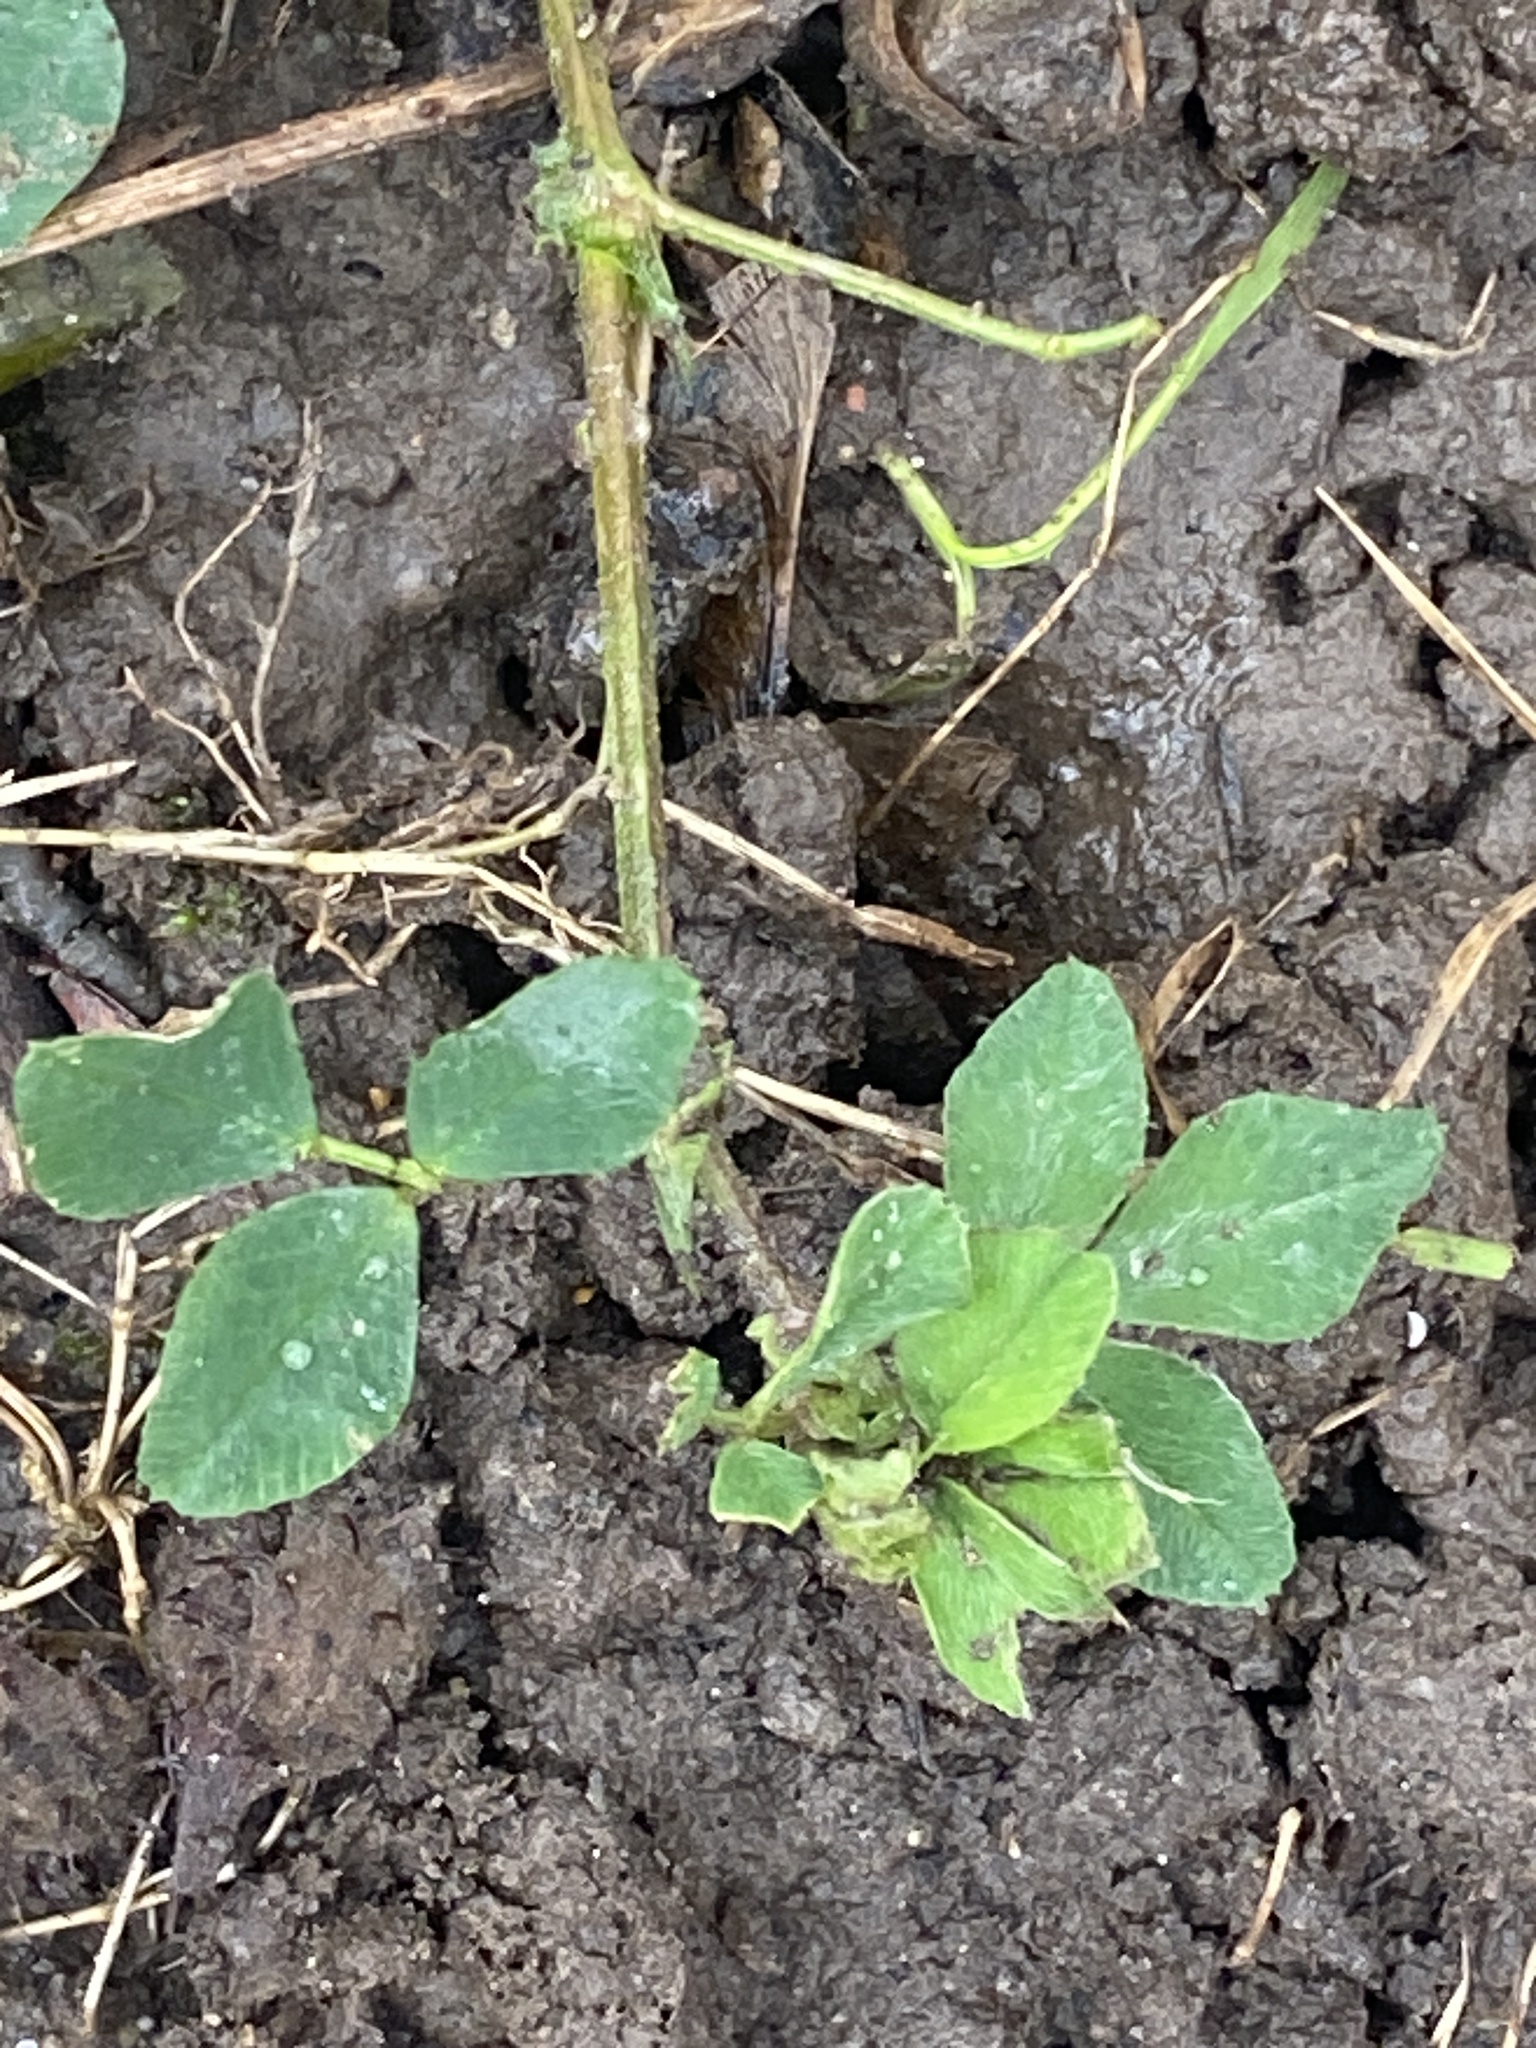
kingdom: Plantae
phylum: Tracheophyta
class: Magnoliopsida
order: Fabales
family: Fabaceae
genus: Medicago
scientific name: Medicago lupulina
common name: Black medick
